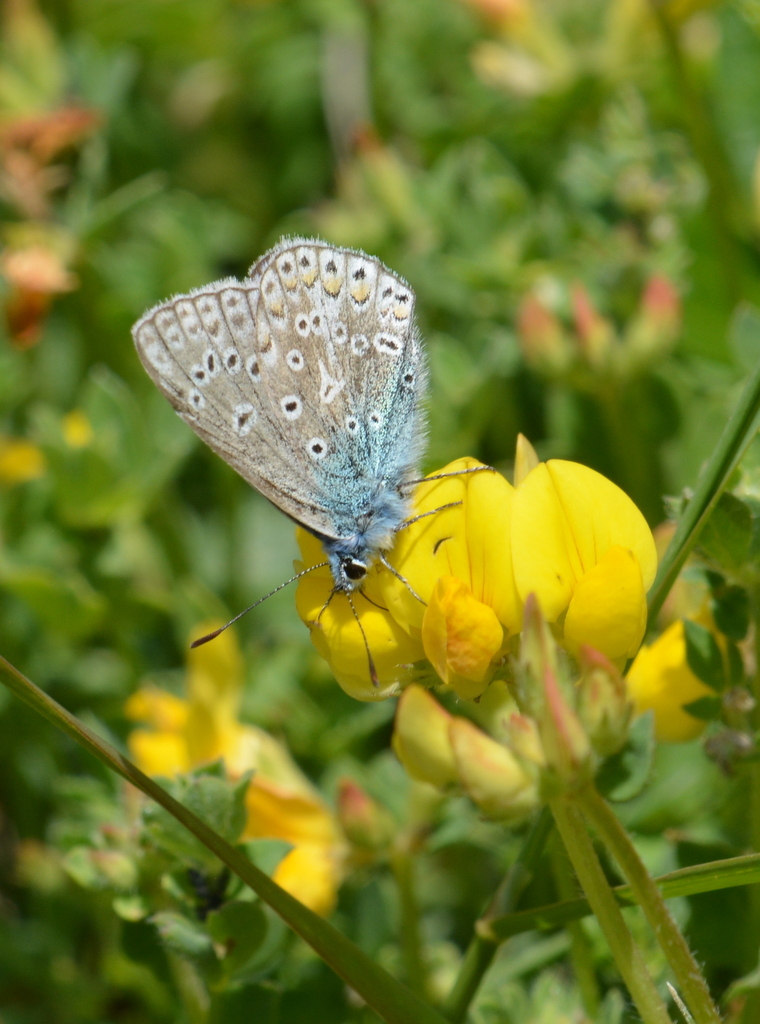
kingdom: Animalia
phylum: Arthropoda
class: Insecta
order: Lepidoptera
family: Lycaenidae
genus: Polyommatus
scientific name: Polyommatus icarus
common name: Common blue
